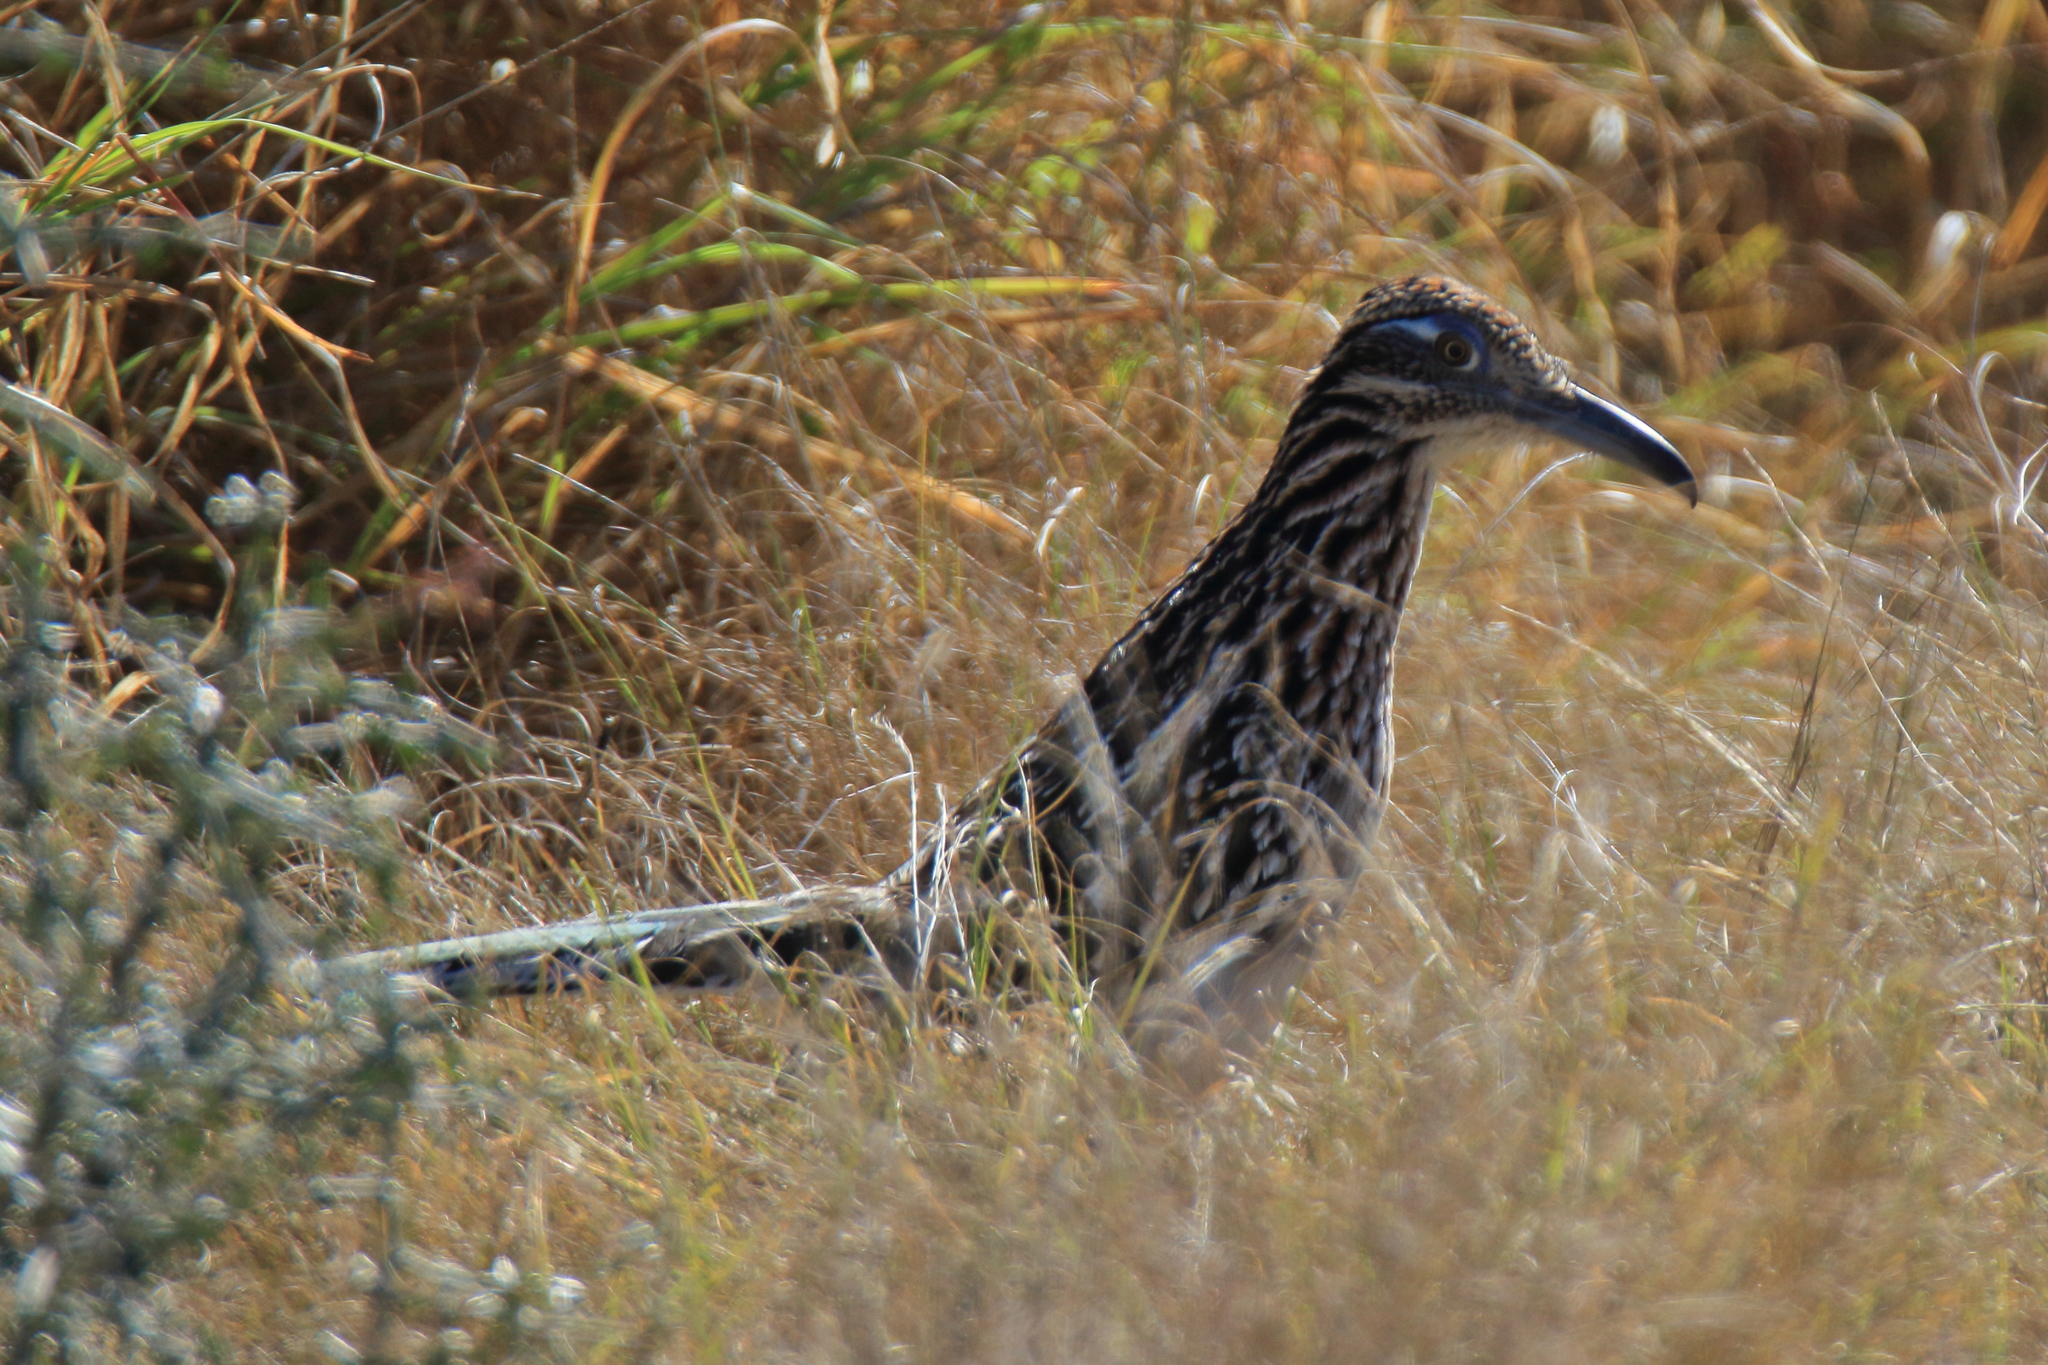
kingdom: Animalia
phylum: Chordata
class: Aves
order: Cuculiformes
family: Cuculidae
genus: Geococcyx
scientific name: Geococcyx californianus
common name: Greater roadrunner
